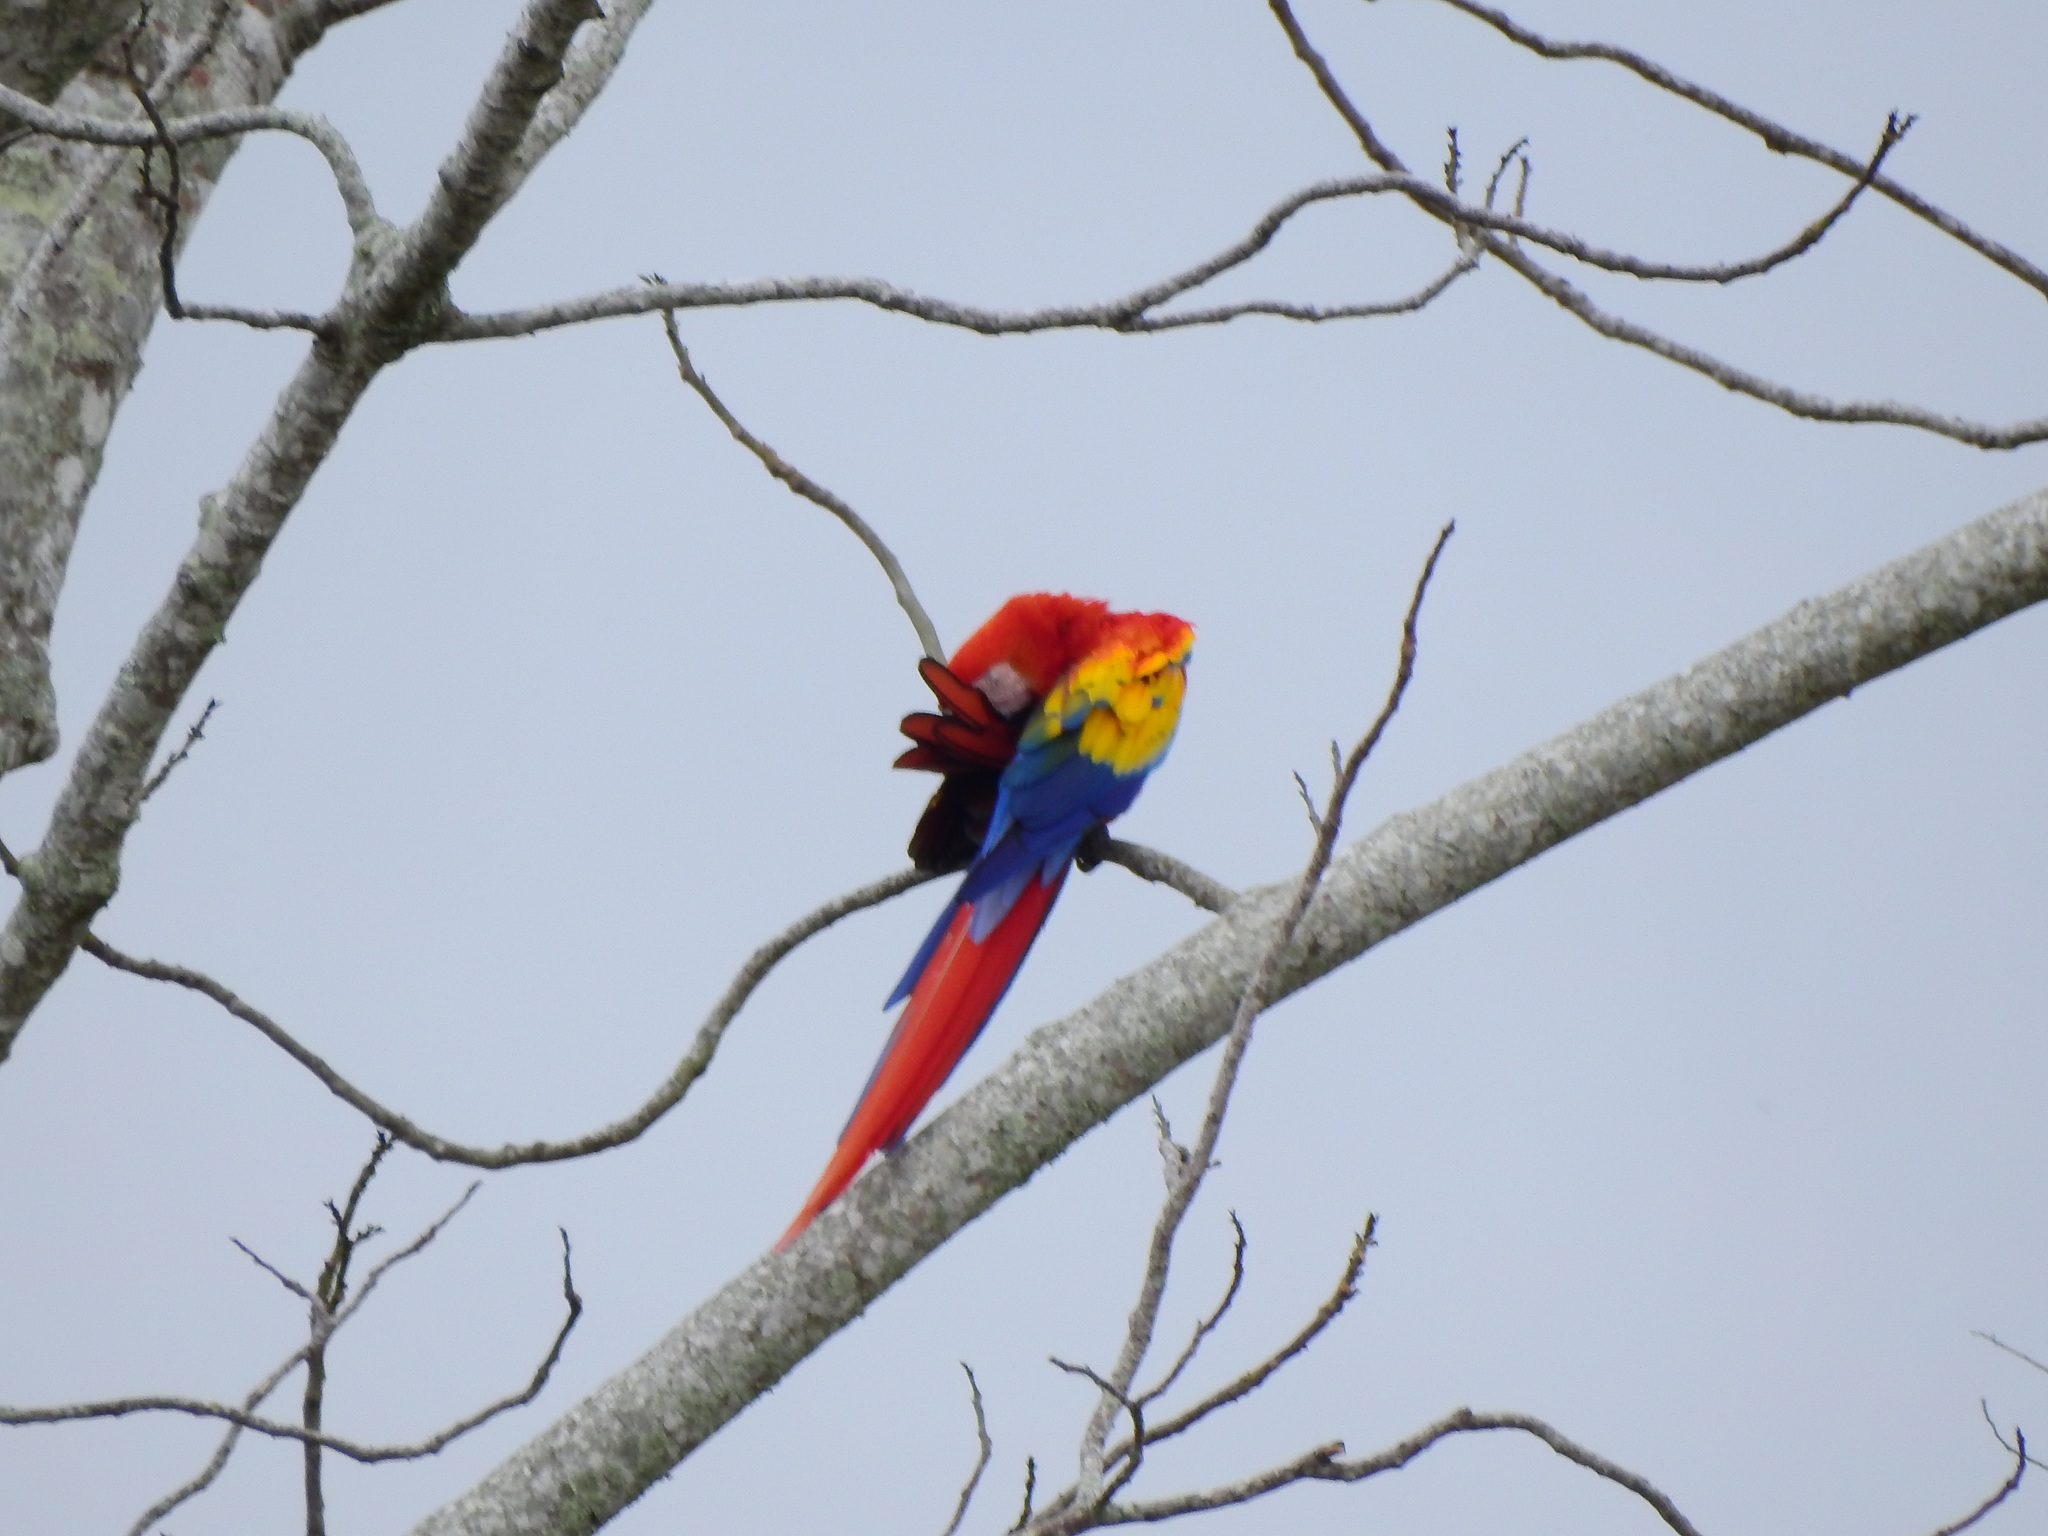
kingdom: Animalia
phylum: Chordata
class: Aves
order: Psittaciformes
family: Psittacidae
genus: Ara
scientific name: Ara macao
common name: Scarlet macaw
